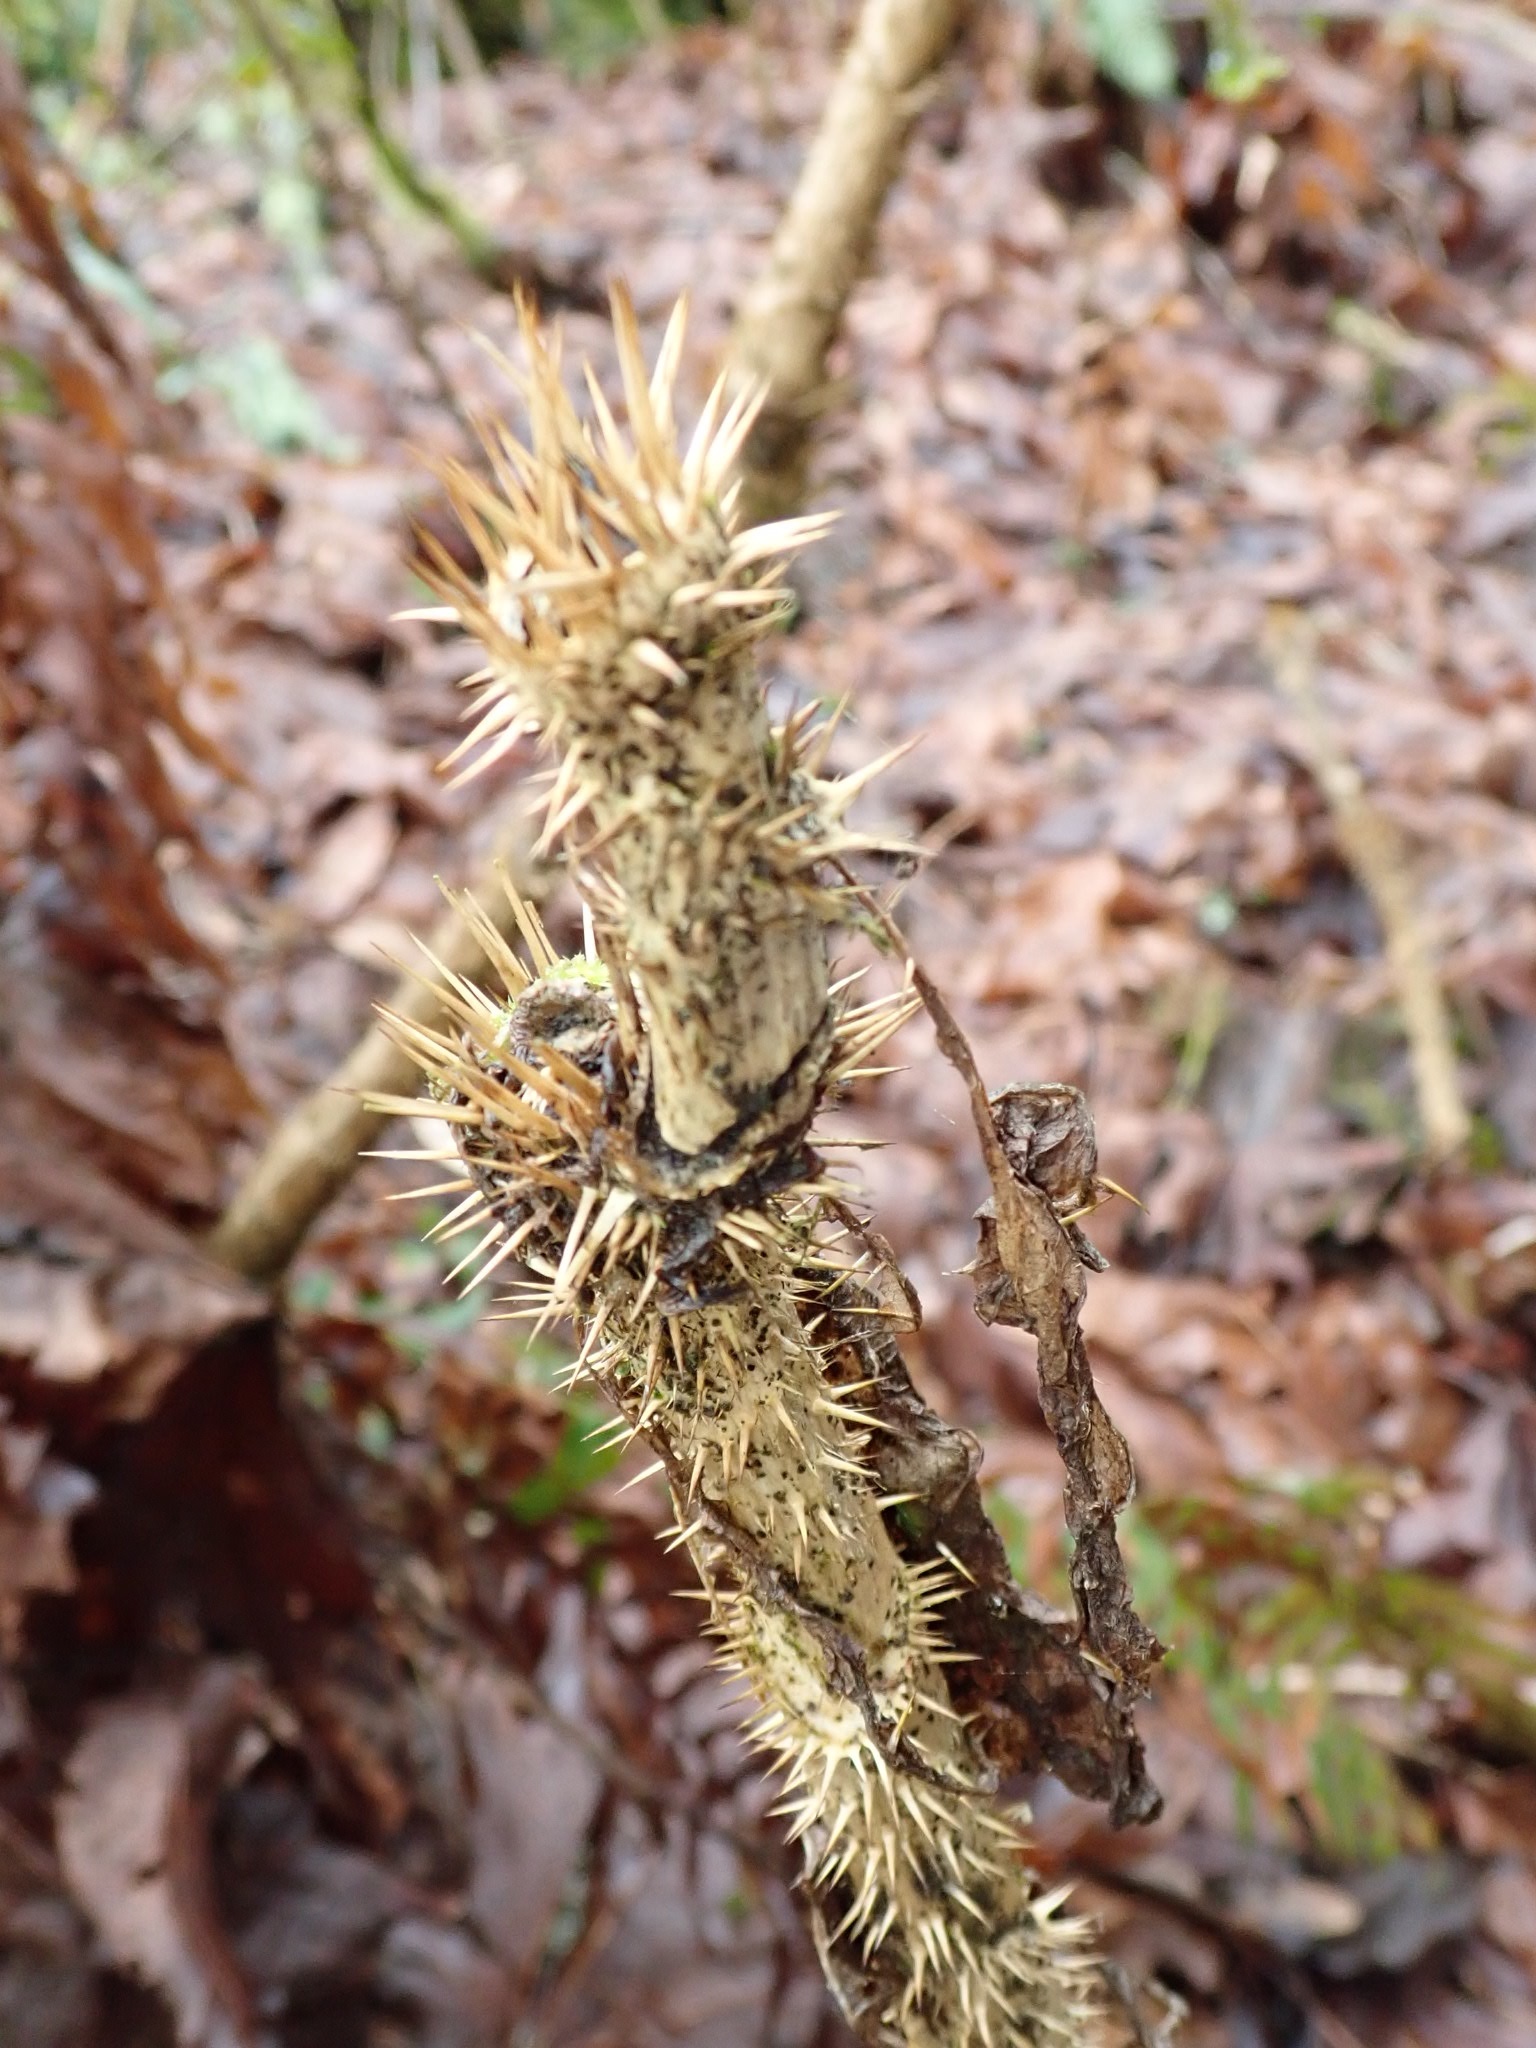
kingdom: Plantae
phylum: Tracheophyta
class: Magnoliopsida
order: Apiales
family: Araliaceae
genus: Oplopanax
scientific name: Oplopanax horridus
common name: Devil's walking-stick
